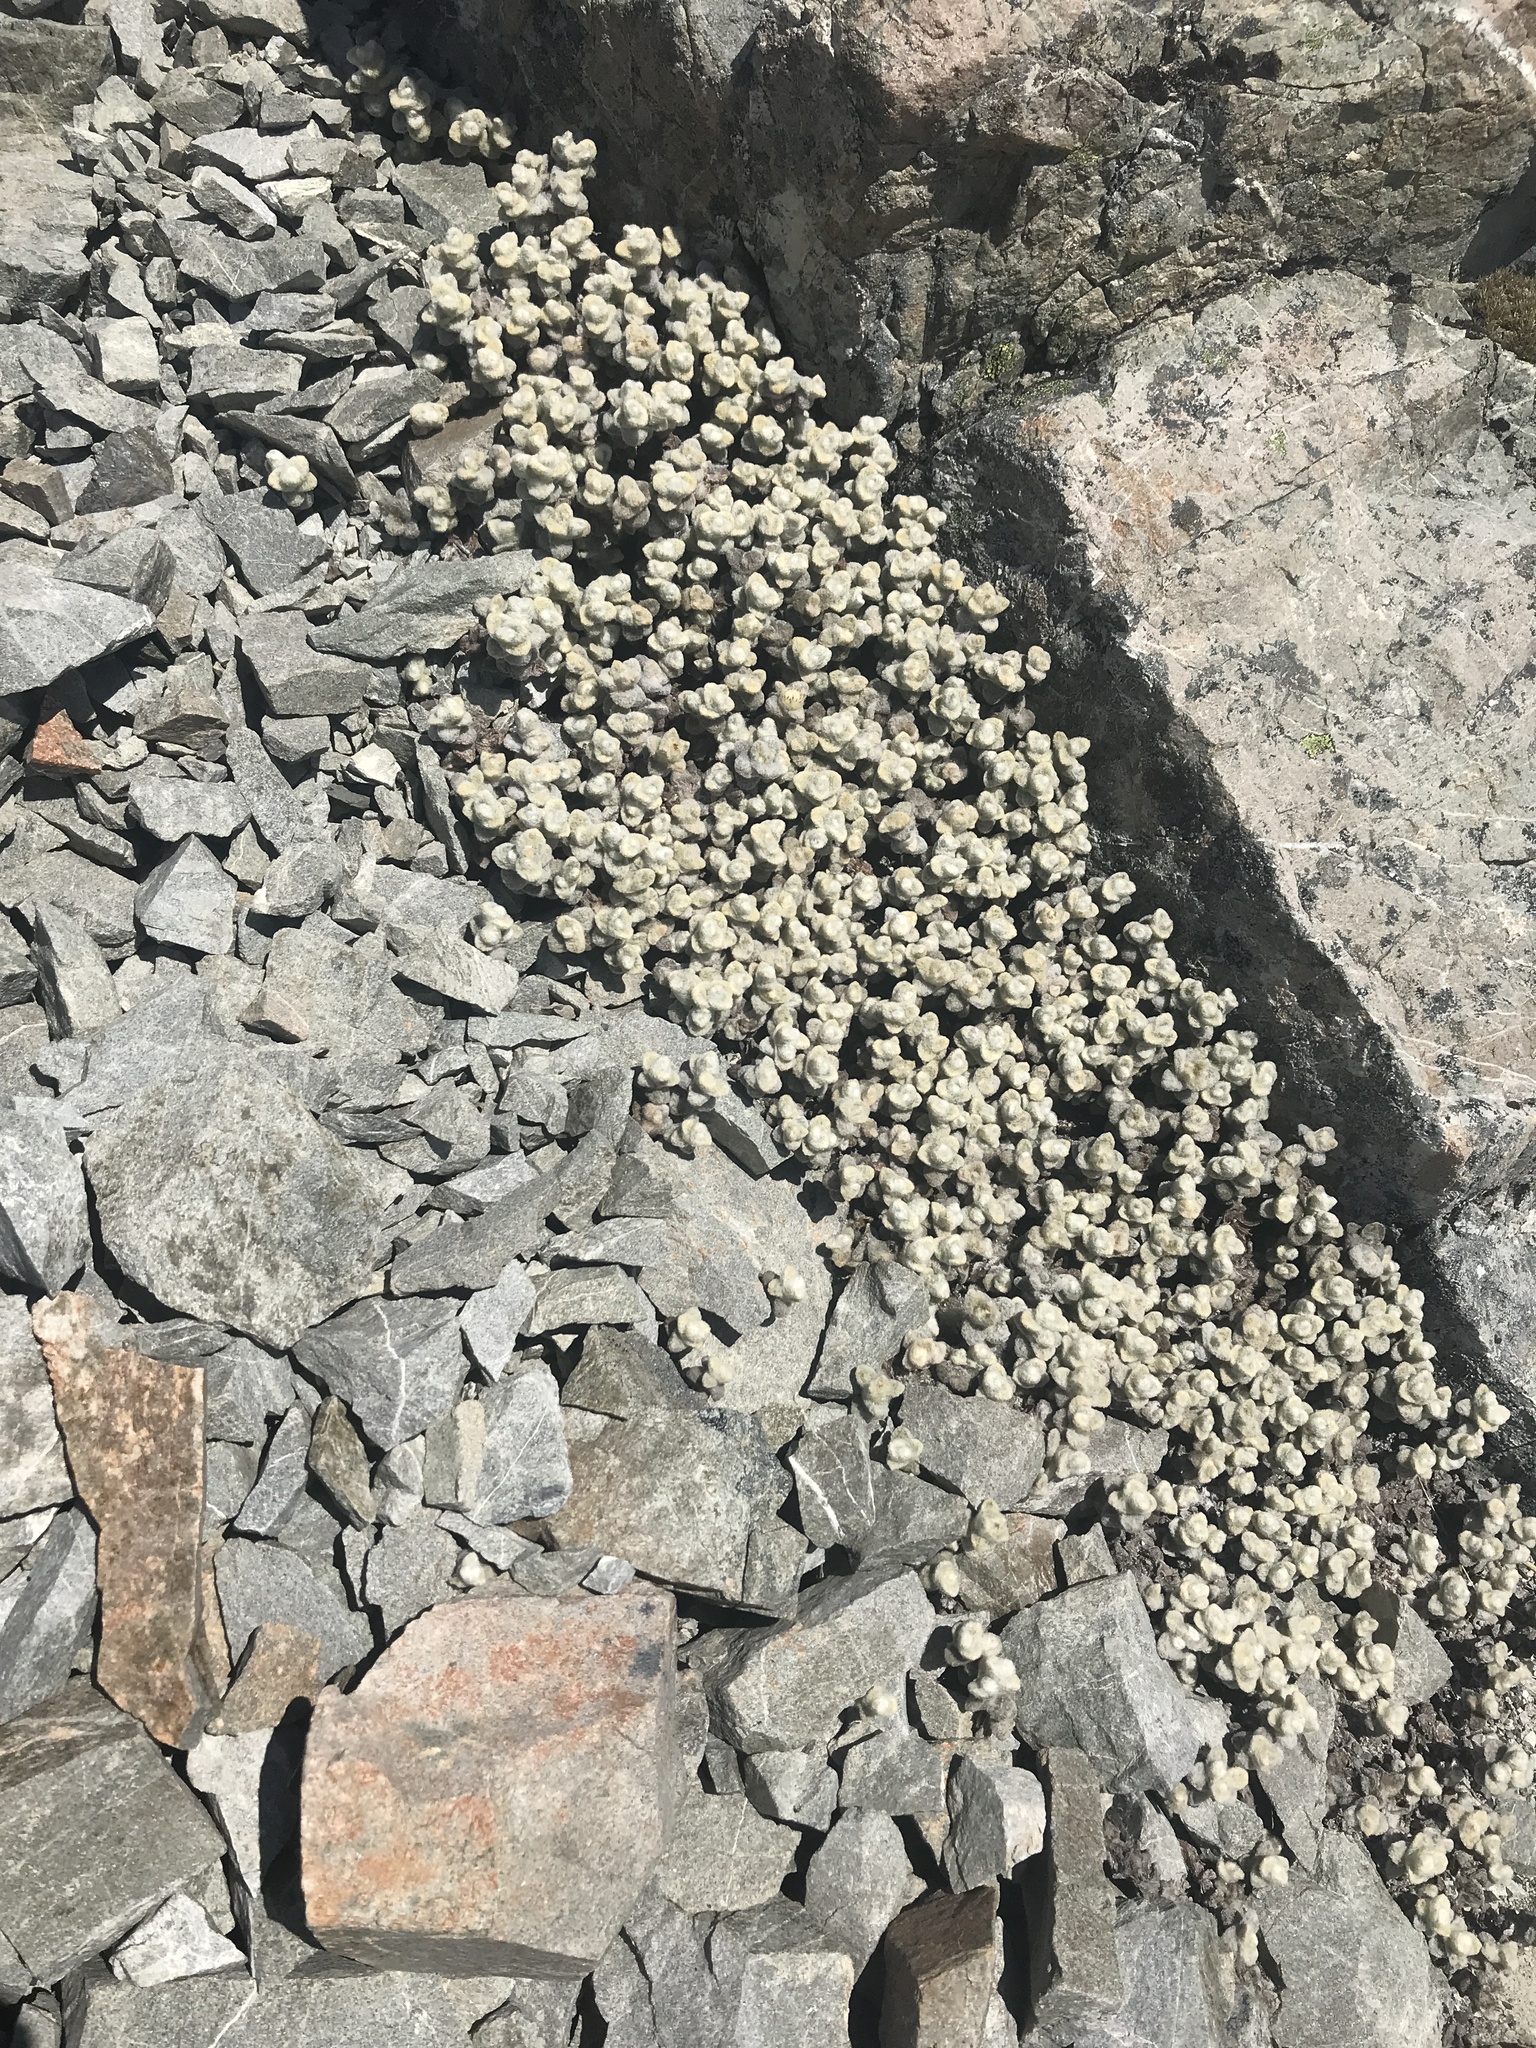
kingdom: Plantae
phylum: Tracheophyta
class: Magnoliopsida
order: Asterales
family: Asteraceae
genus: Haastia
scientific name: Haastia recurva
